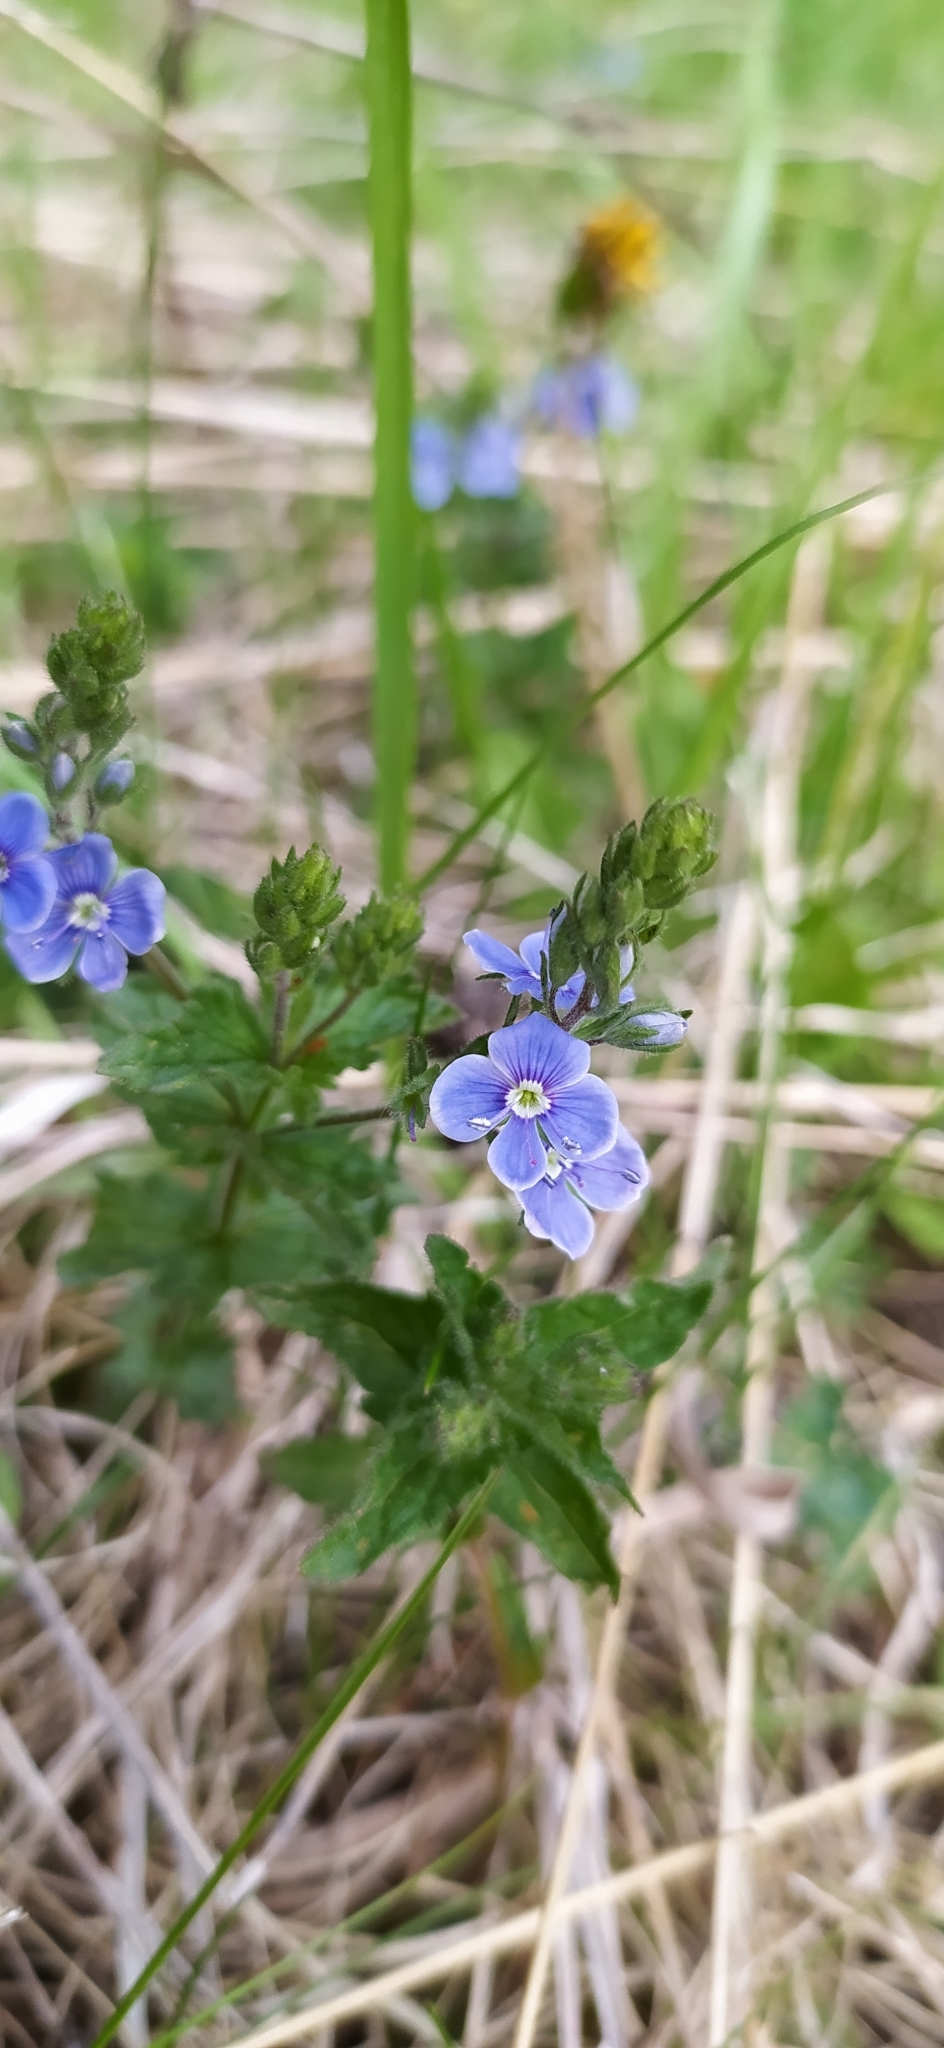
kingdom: Plantae
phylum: Tracheophyta
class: Magnoliopsida
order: Lamiales
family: Plantaginaceae
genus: Veronica
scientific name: Veronica chamaedrys
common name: Germander speedwell
